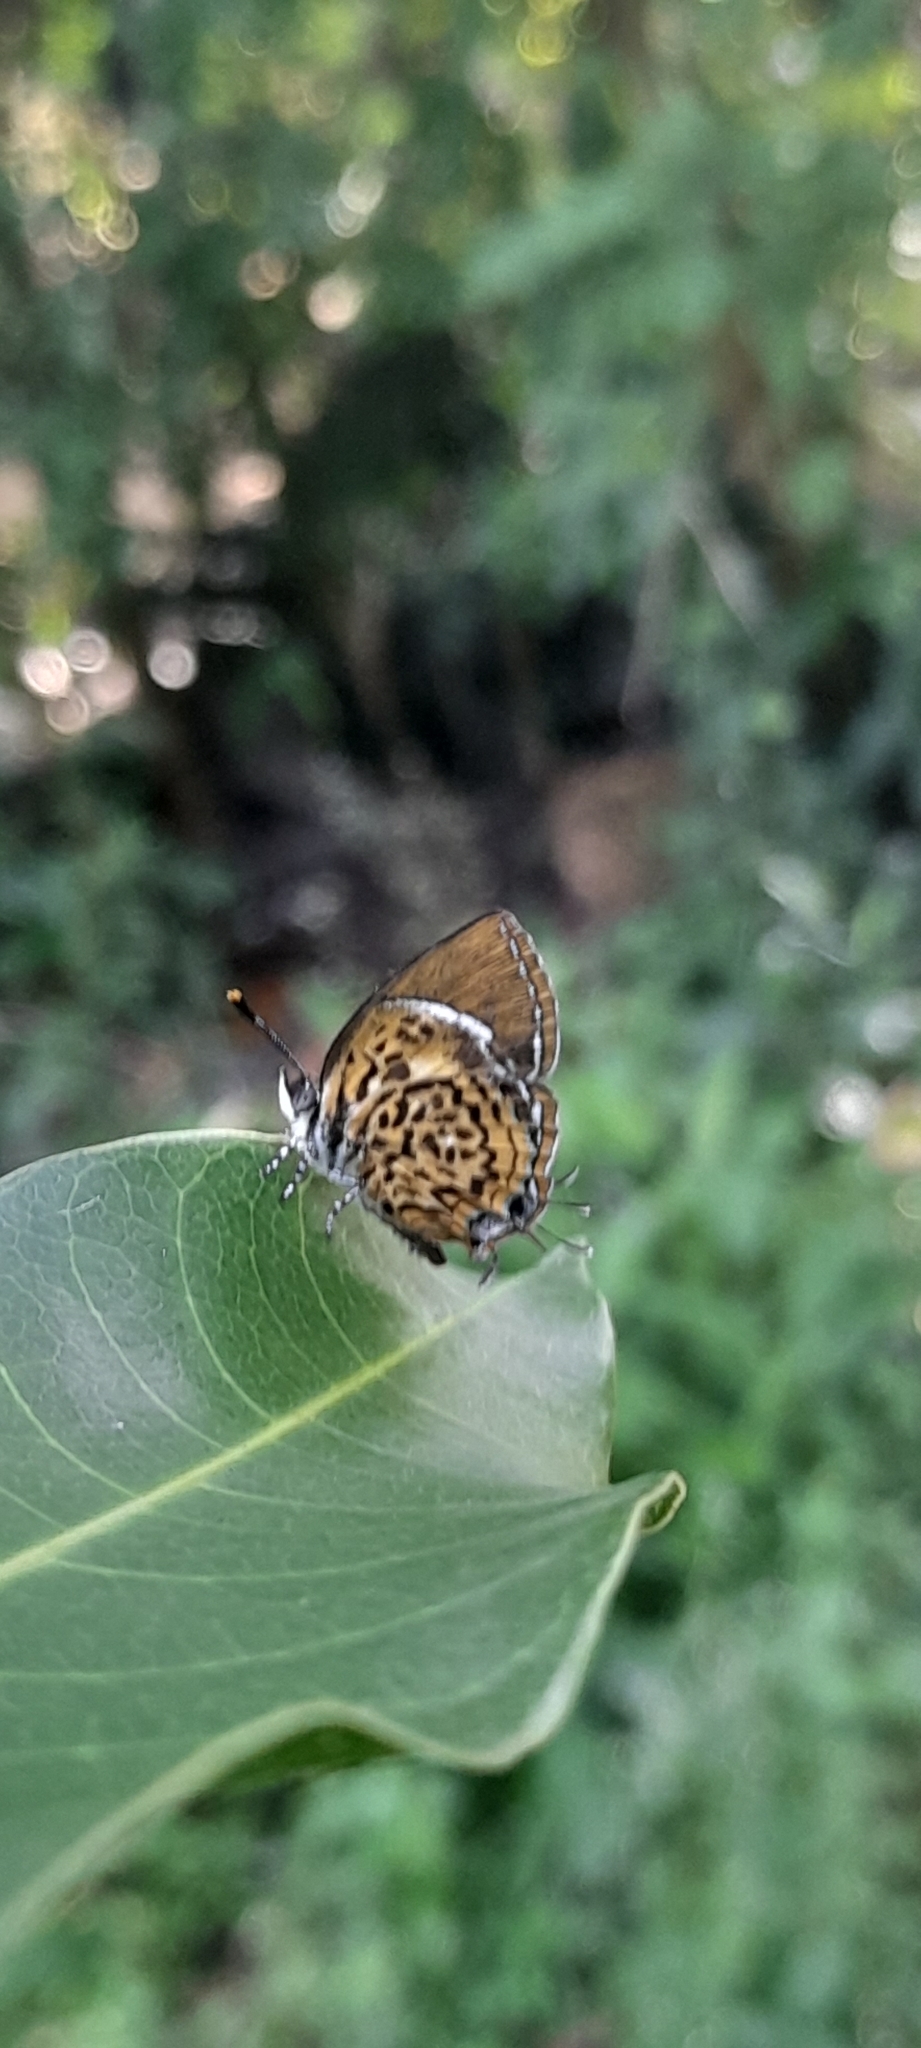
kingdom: Animalia
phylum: Arthropoda
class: Insecta
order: Lepidoptera
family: Lycaenidae
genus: Rathinda
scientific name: Rathinda amor
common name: Monkey puzzle
